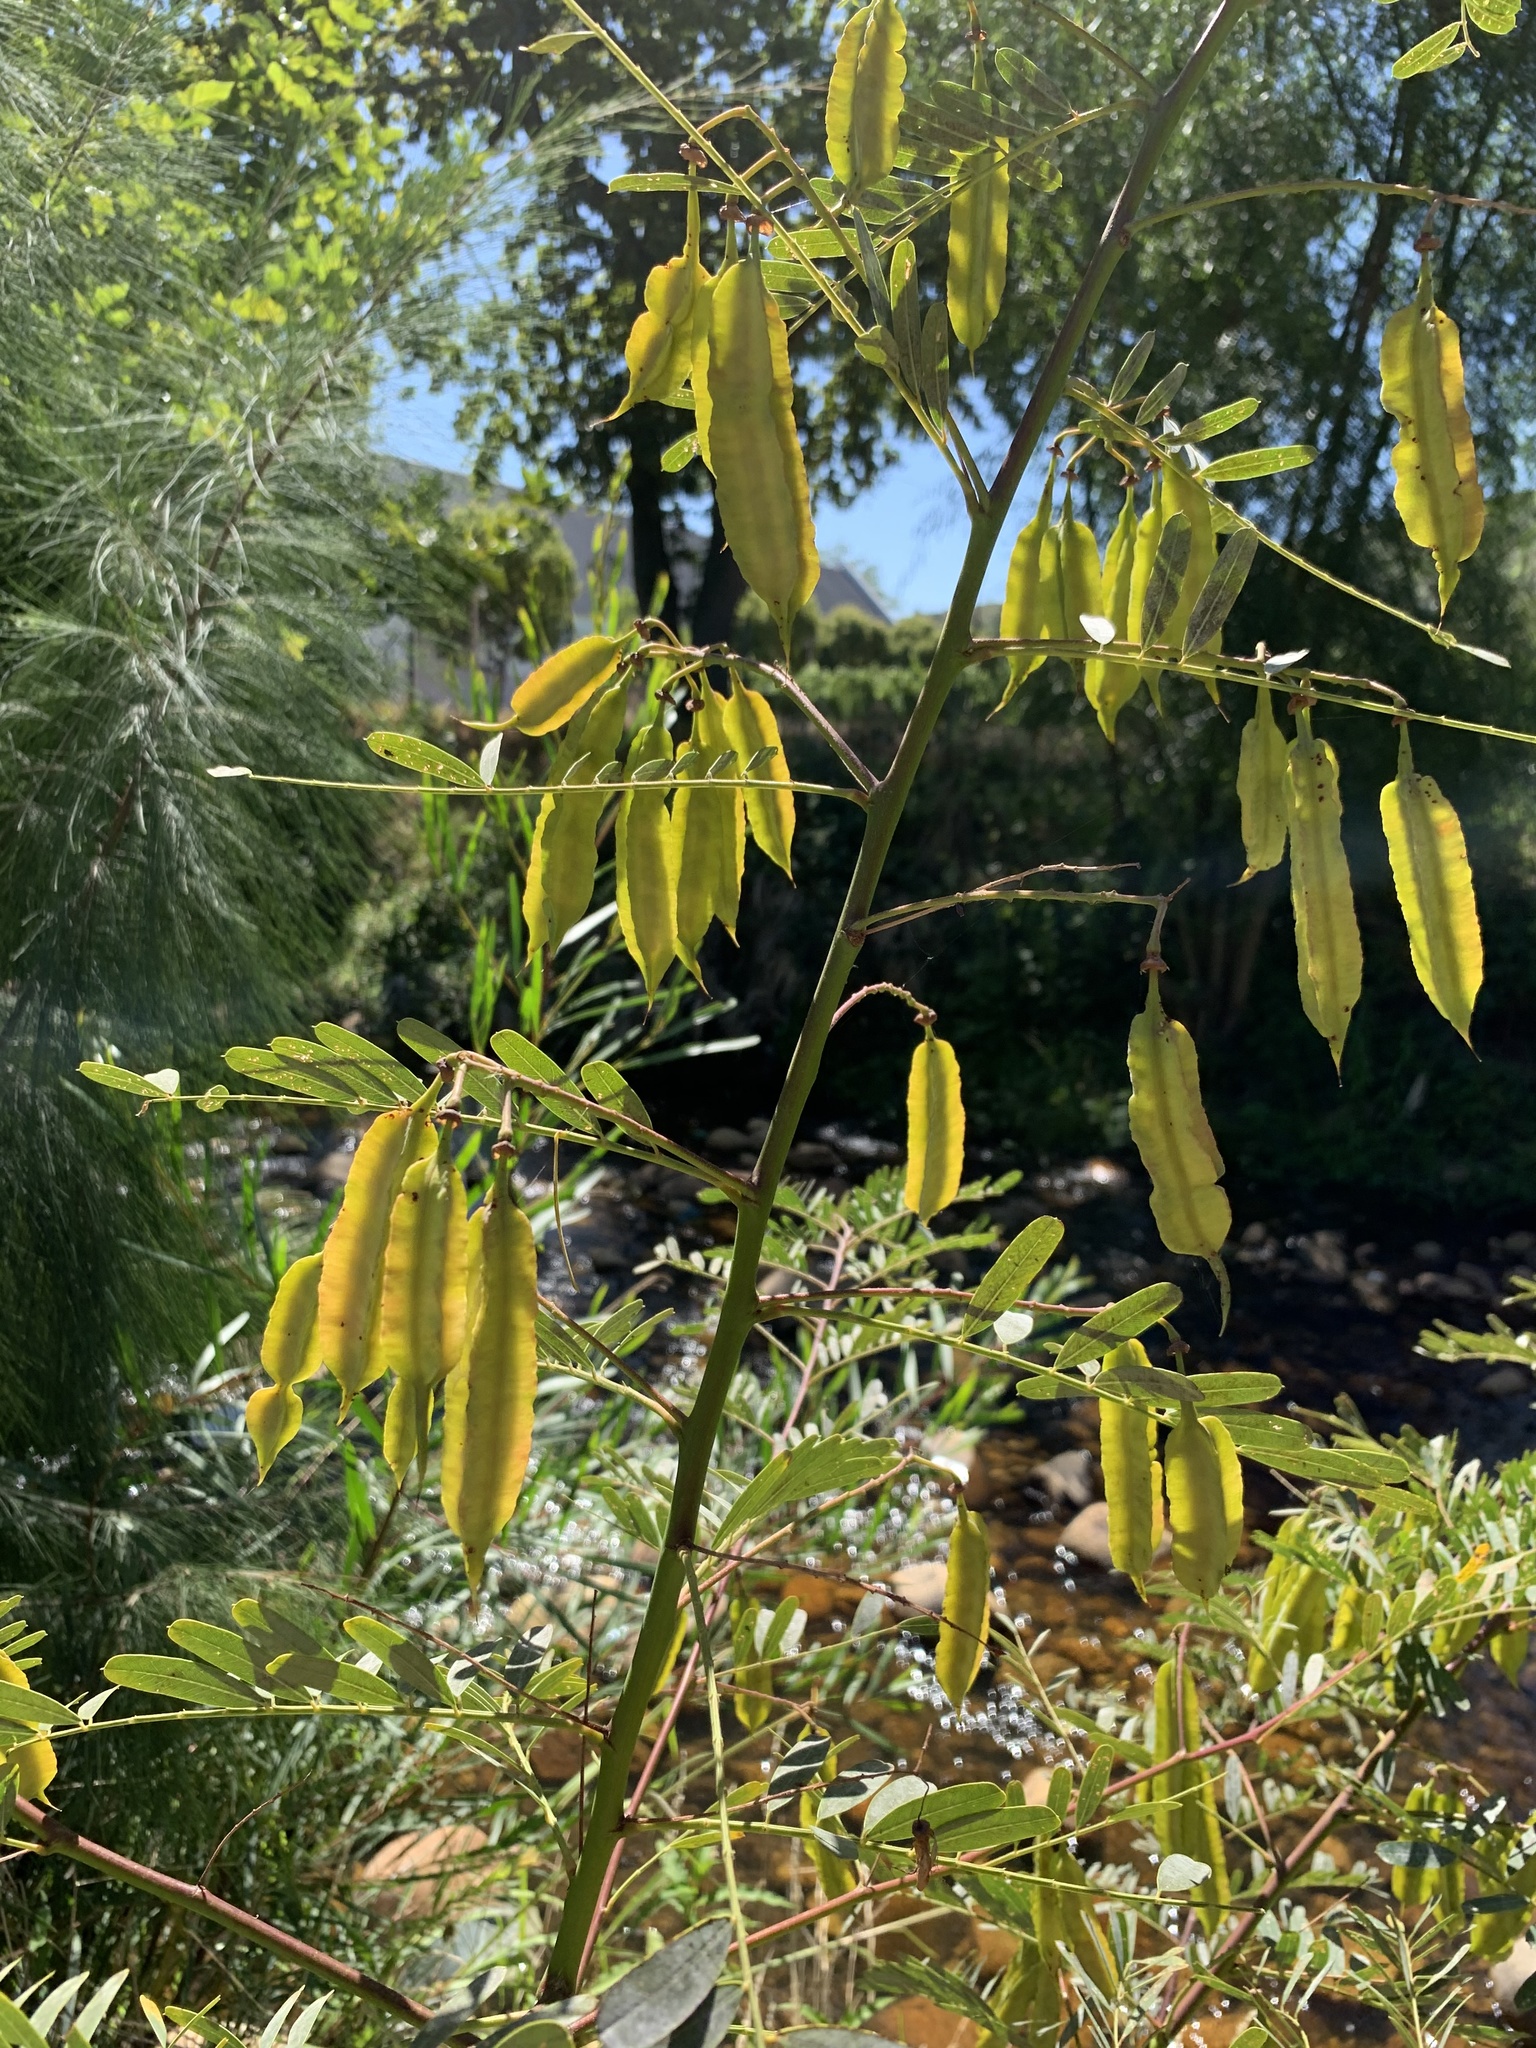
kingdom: Plantae
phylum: Tracheophyta
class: Magnoliopsida
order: Fabales
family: Fabaceae
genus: Sesbania
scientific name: Sesbania punicea
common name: Rattlebox
